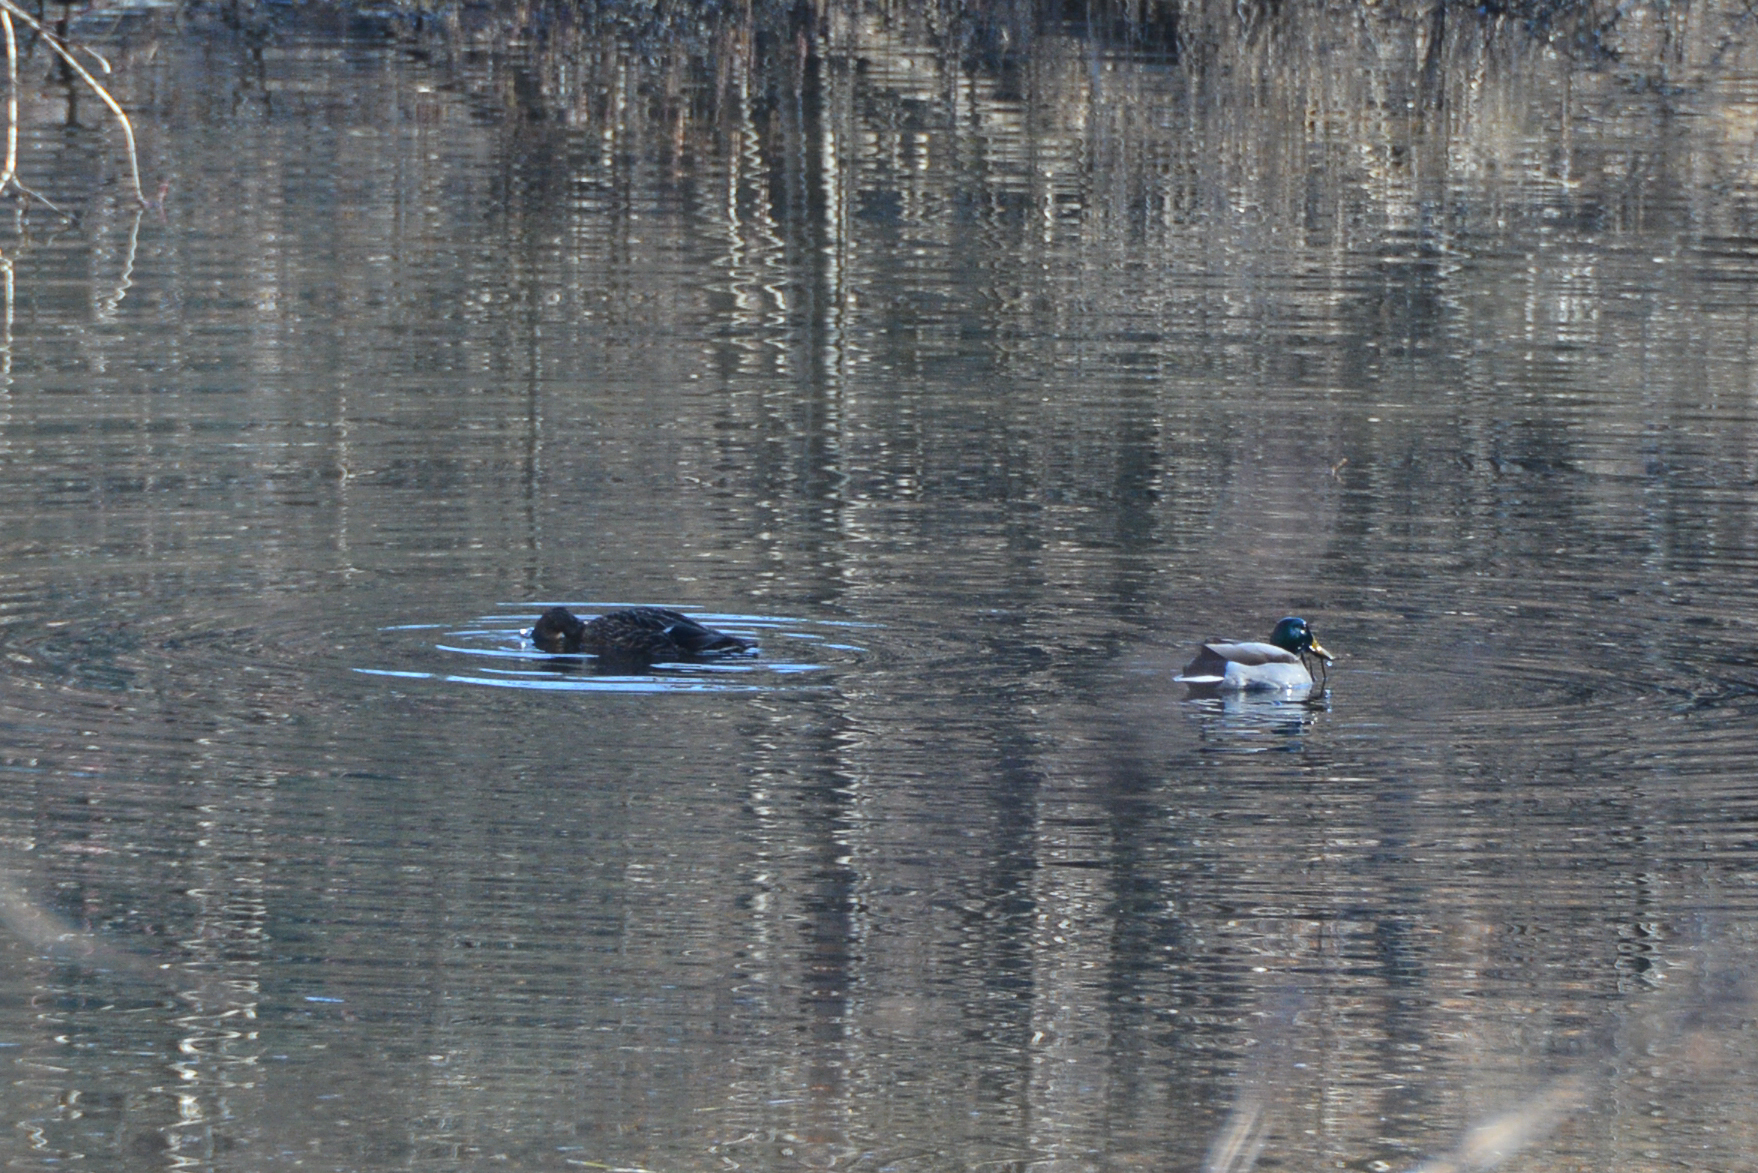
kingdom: Animalia
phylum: Chordata
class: Aves
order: Anseriformes
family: Anatidae
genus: Anas
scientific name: Anas platyrhynchos
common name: Mallard
